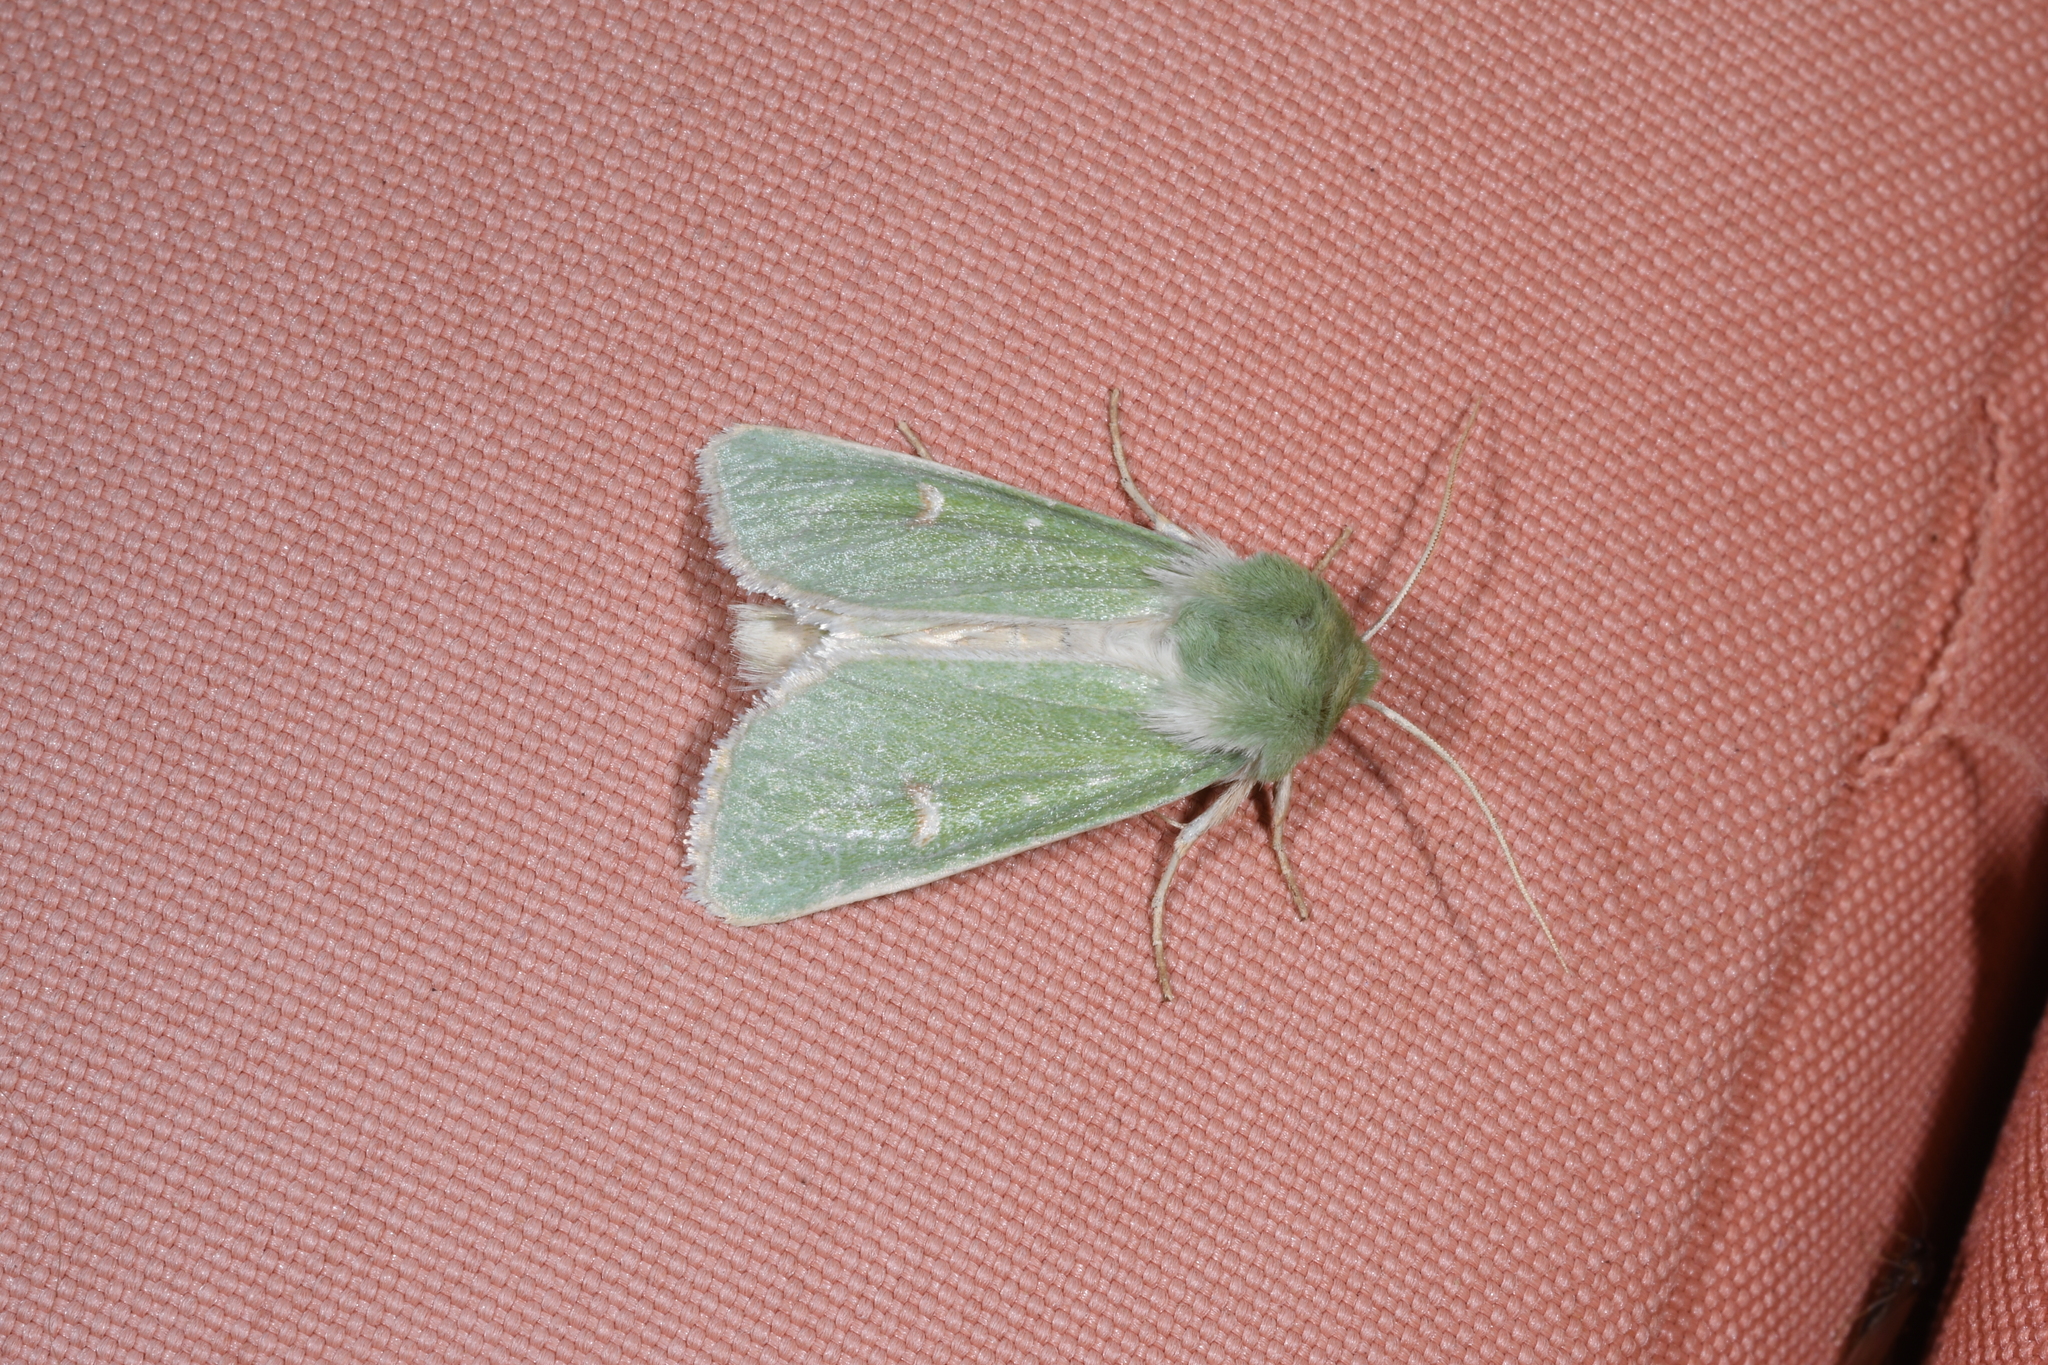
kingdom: Animalia
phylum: Arthropoda
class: Insecta
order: Lepidoptera
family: Noctuidae
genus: Calamia
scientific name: Calamia tridens
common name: Burren green
